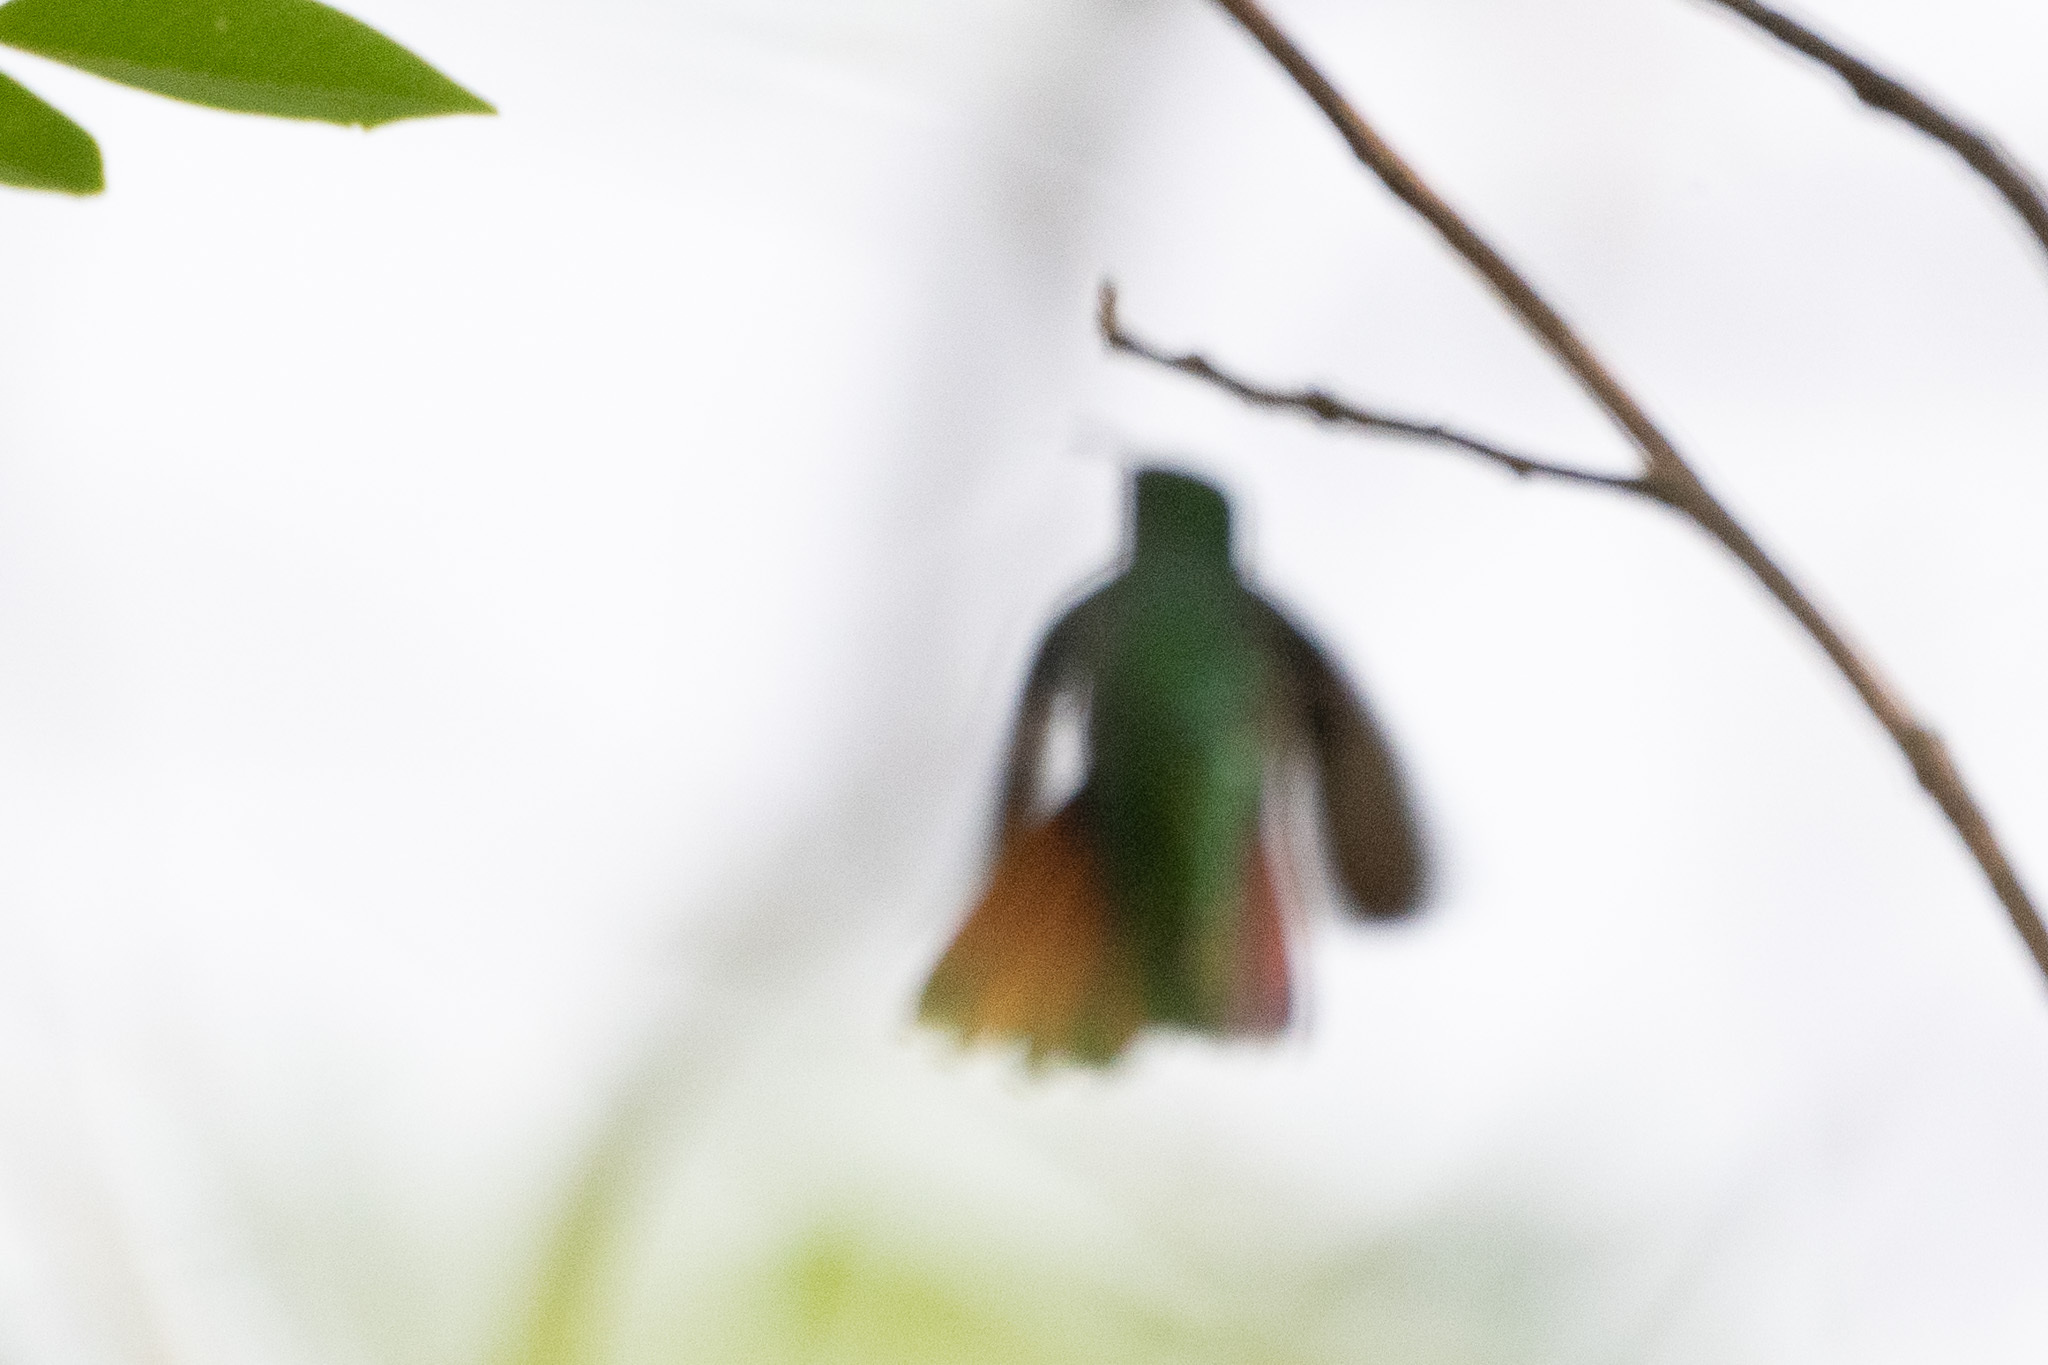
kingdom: Animalia
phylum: Chordata
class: Aves
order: Apodiformes
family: Trochilidae
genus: Anthracothorax
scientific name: Anthracothorax prevostii
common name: Green-breasted mango
